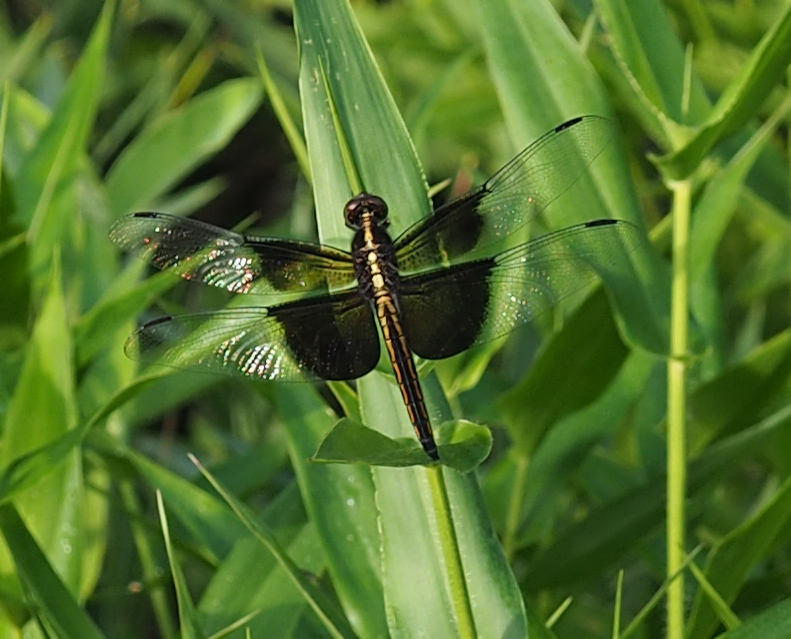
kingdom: Animalia
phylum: Arthropoda
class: Insecta
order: Odonata
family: Libellulidae
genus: Libellula
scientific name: Libellula luctuosa
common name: Widow skimmer
